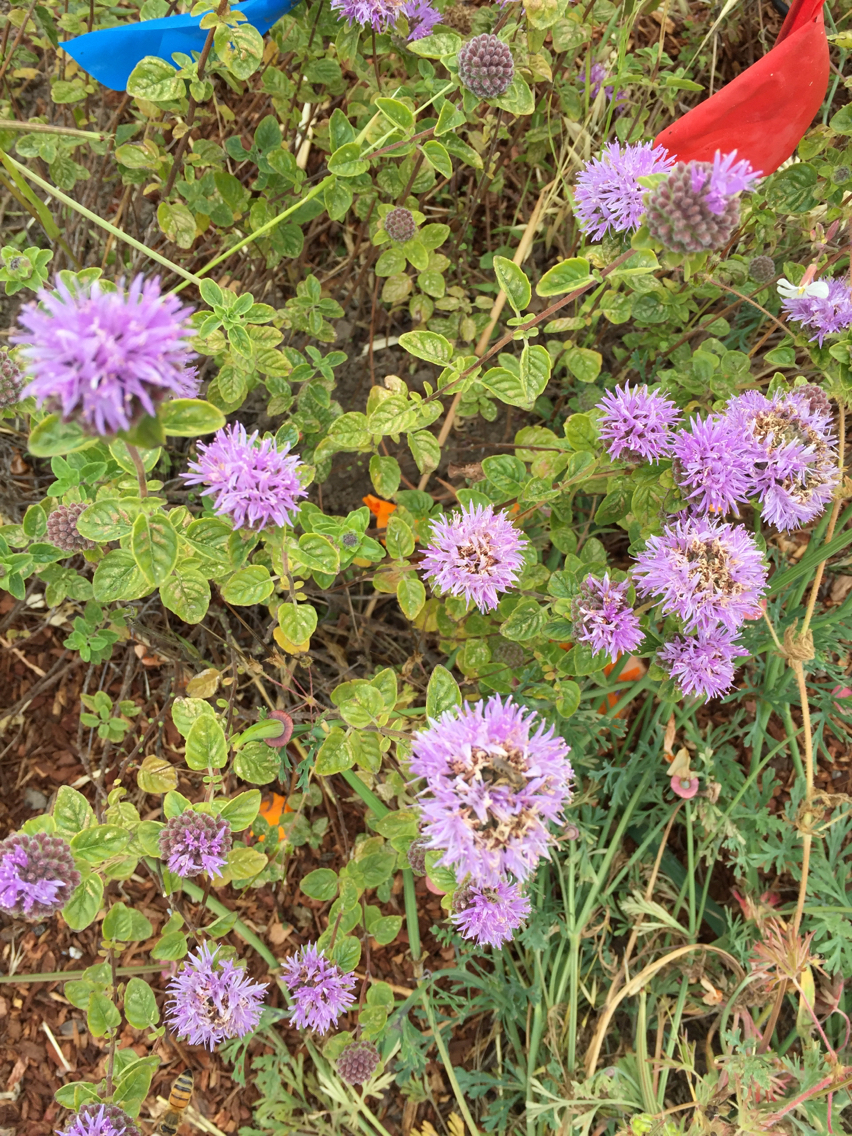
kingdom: Plantae
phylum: Tracheophyta
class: Magnoliopsida
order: Lamiales
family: Lamiaceae
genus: Monardella
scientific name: Monardella odoratissima
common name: Pacific monardella
